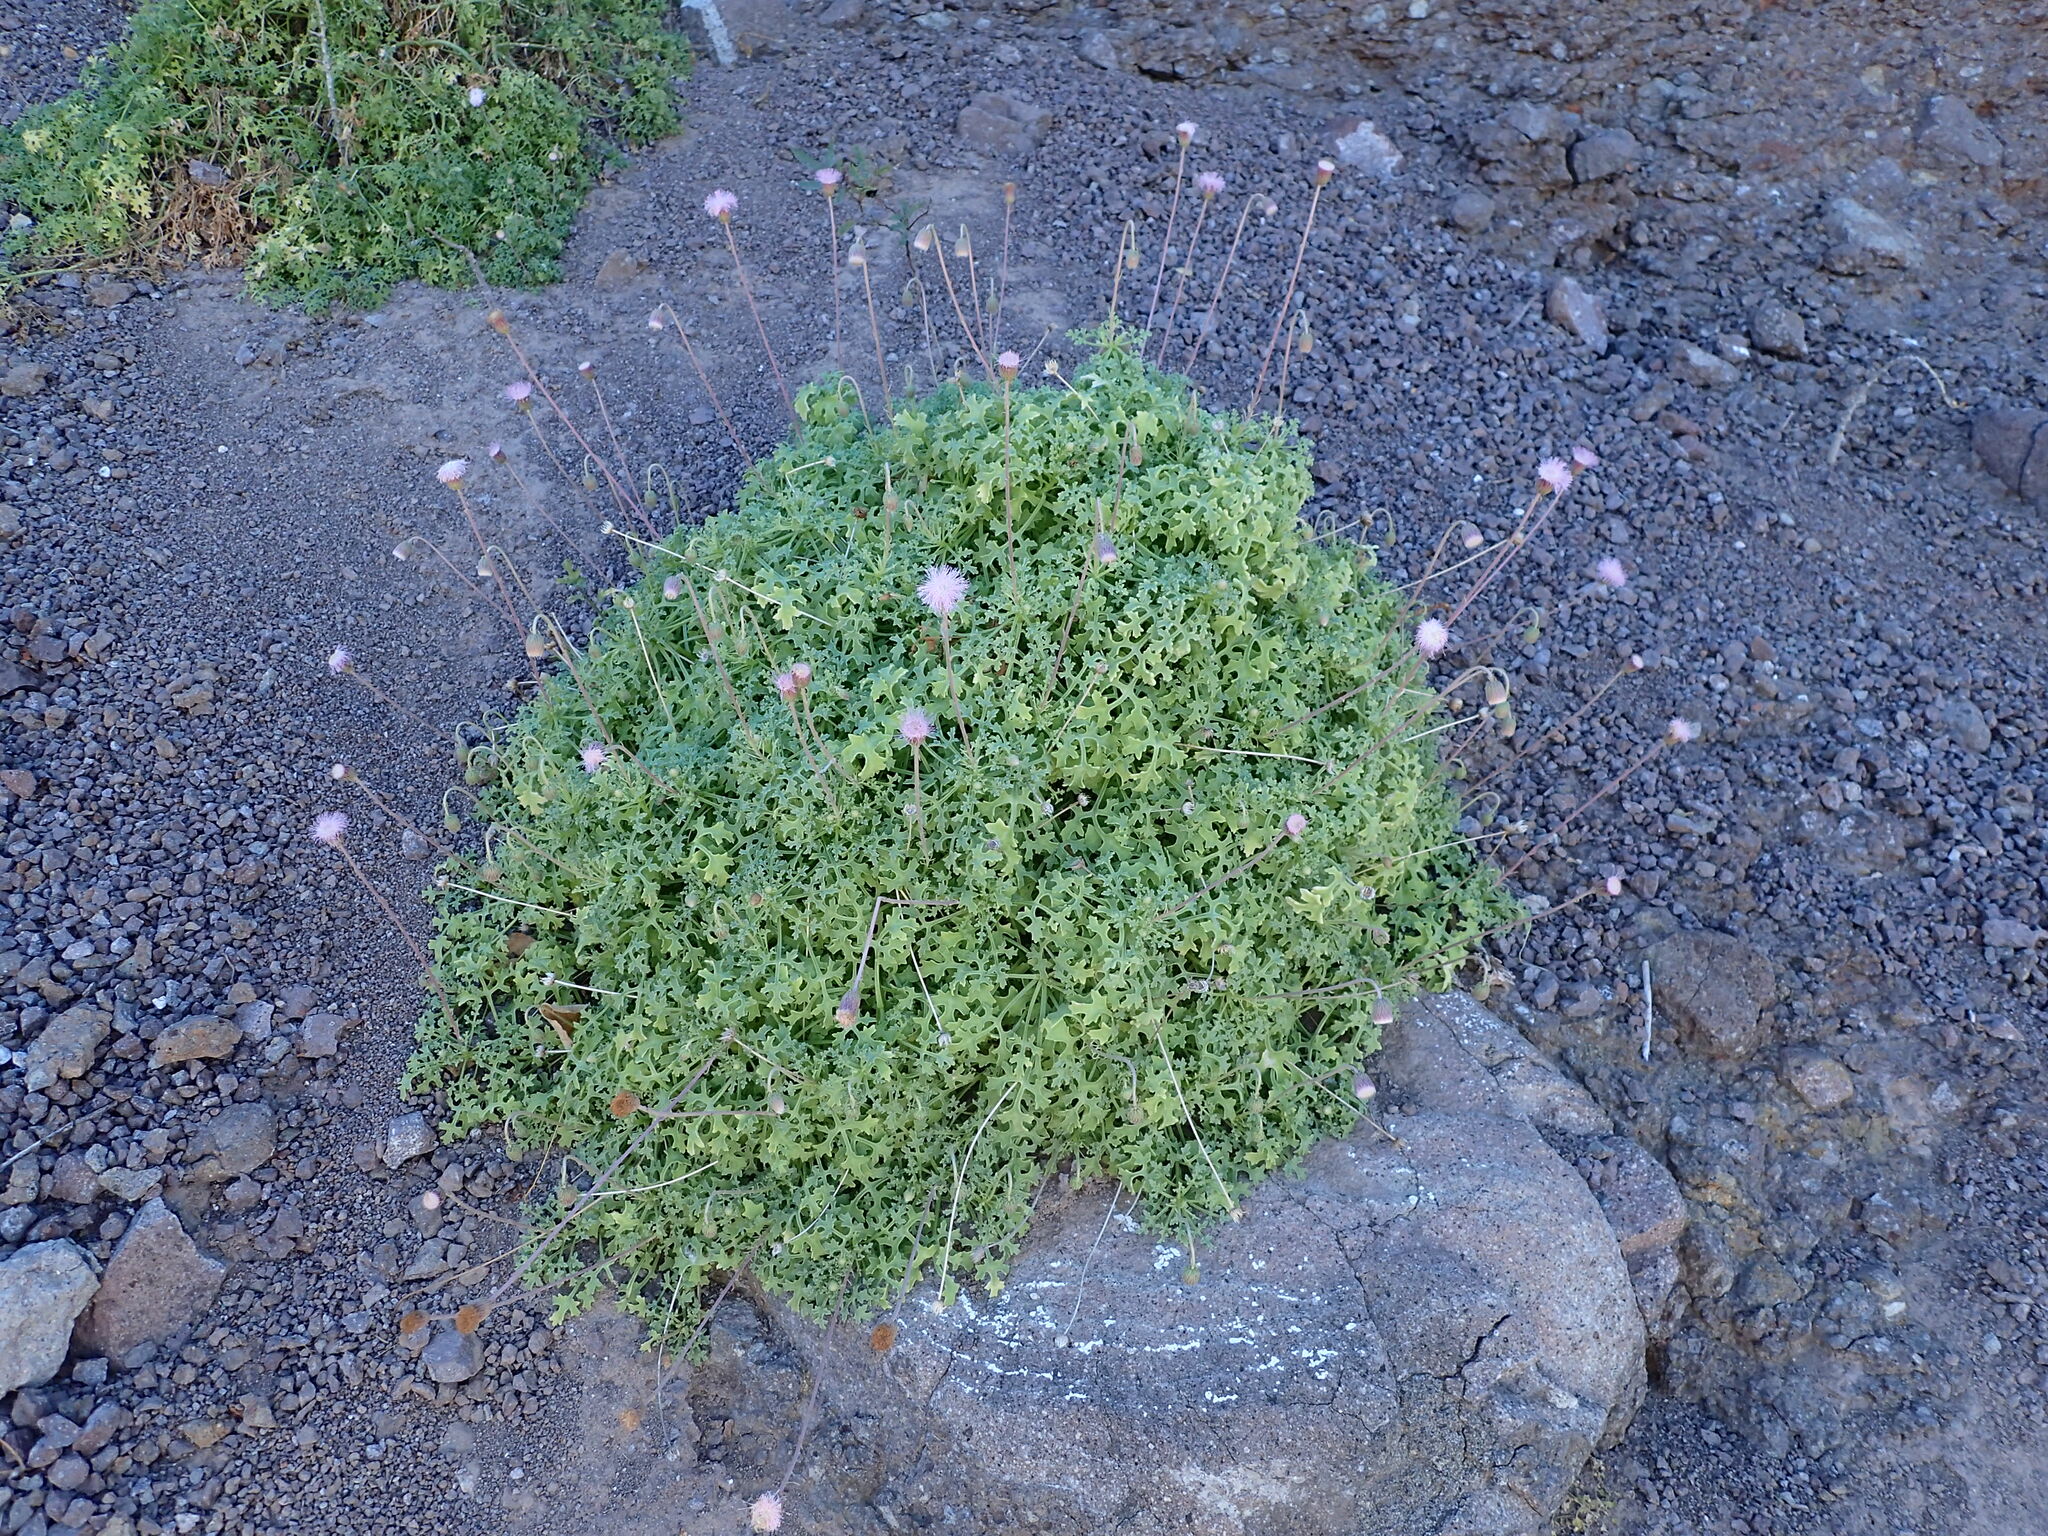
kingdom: Plantae
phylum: Tracheophyta
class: Magnoliopsida
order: Asterales
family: Asteraceae
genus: Hofmeisteria
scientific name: Hofmeisteria fasciculata
